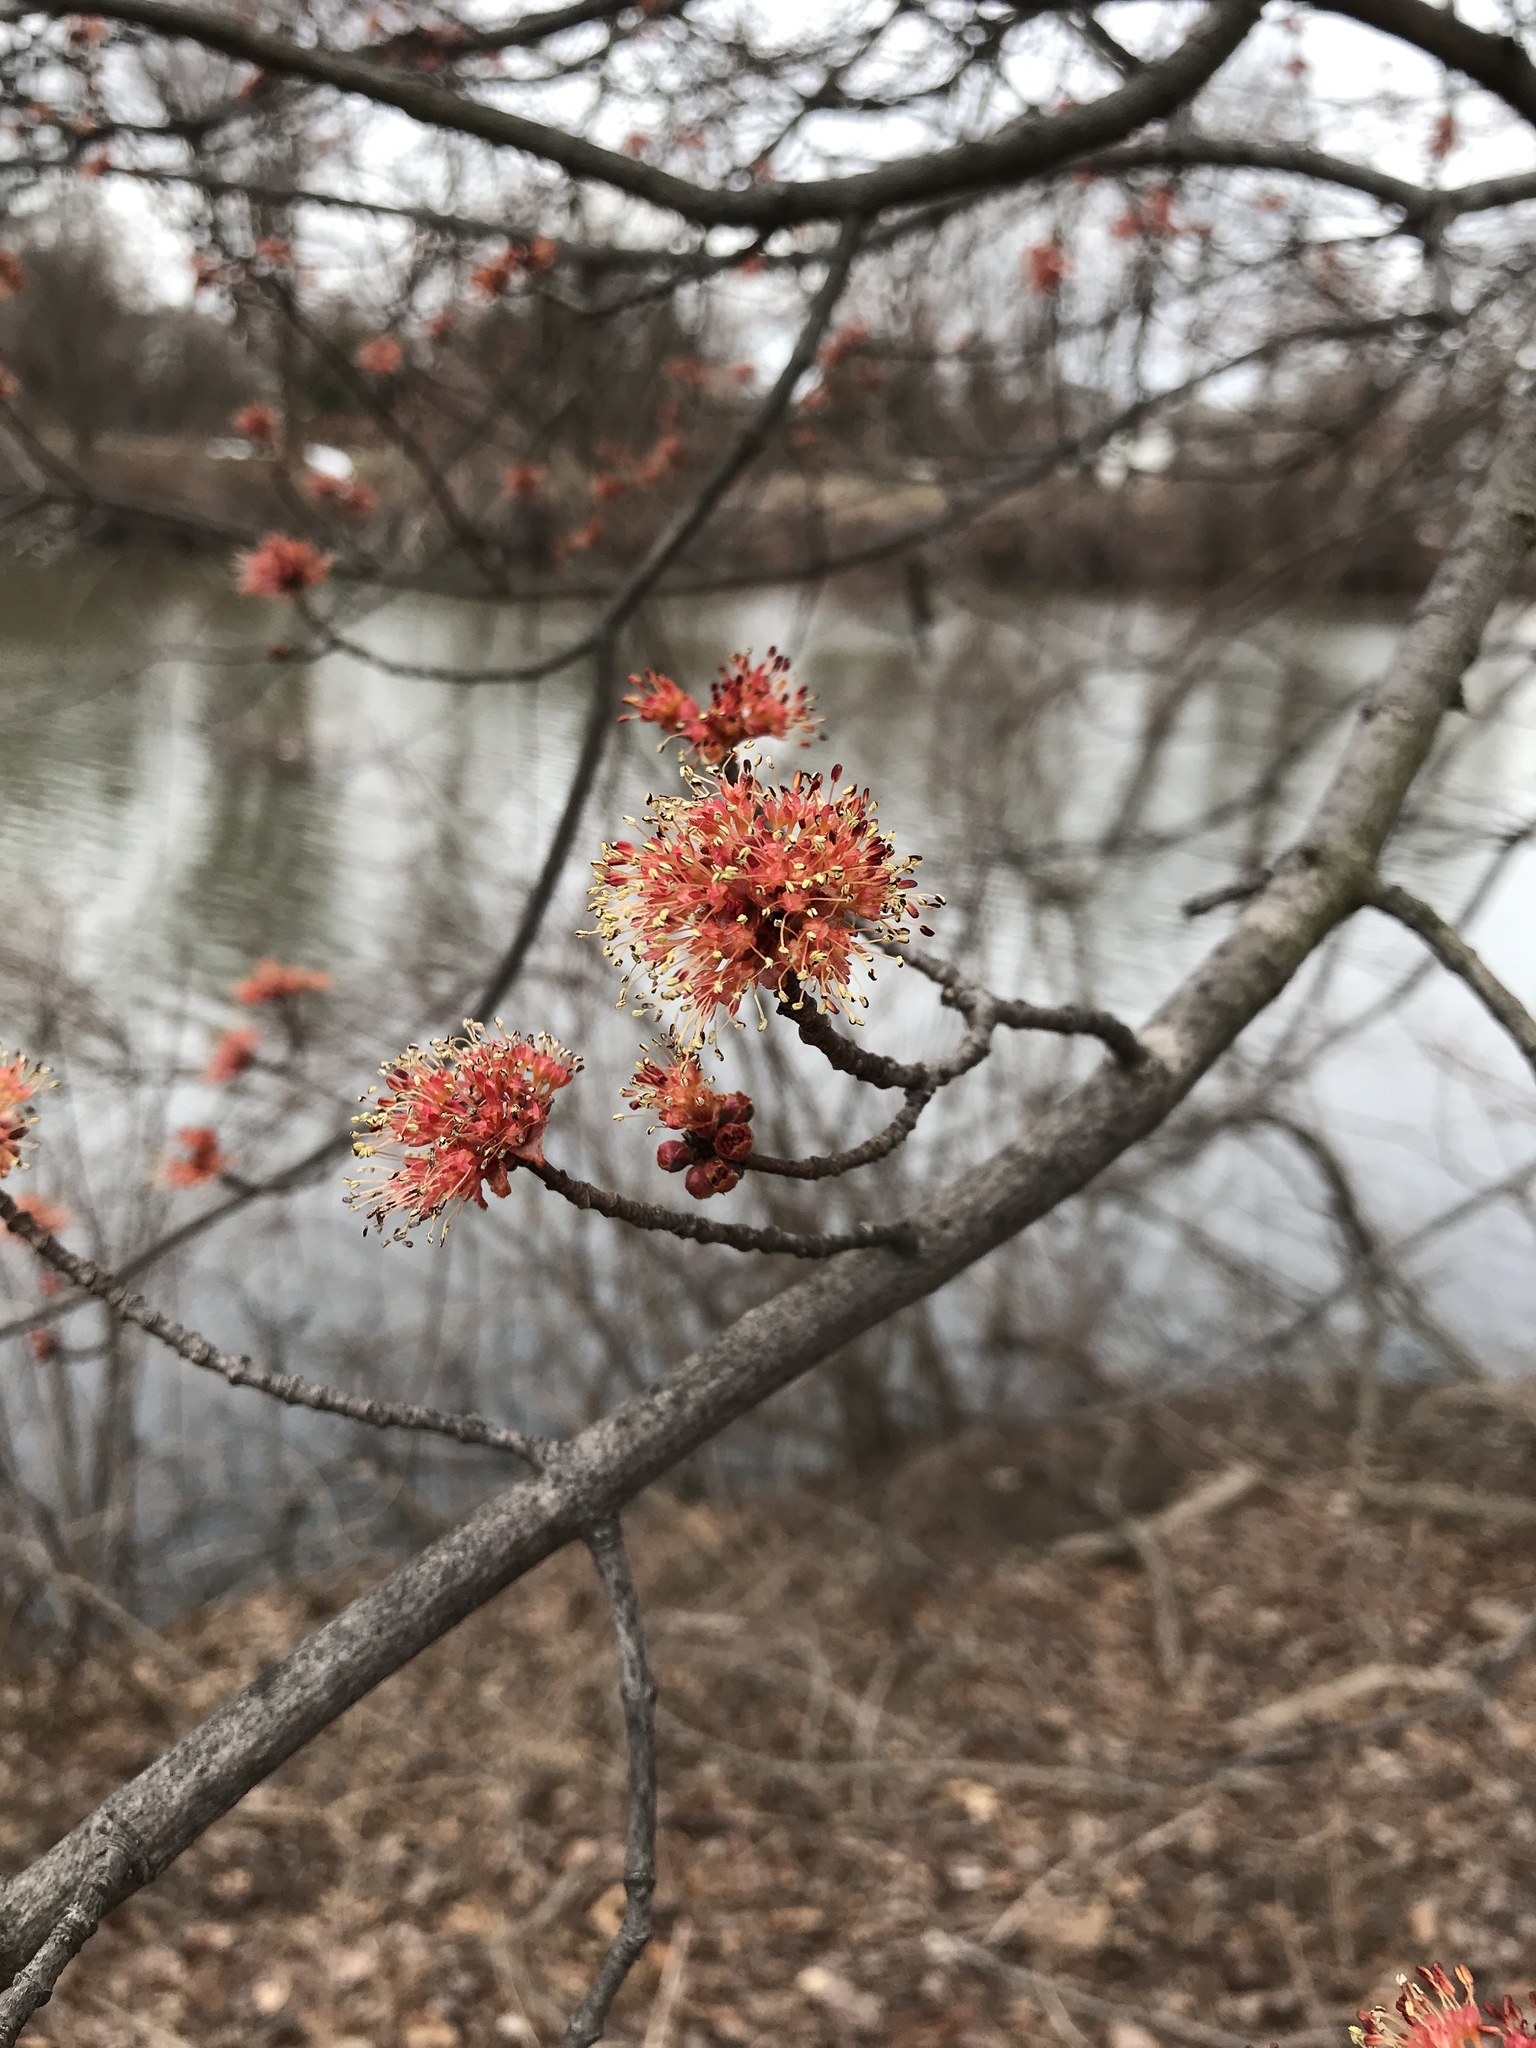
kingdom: Plantae
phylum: Tracheophyta
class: Magnoliopsida
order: Sapindales
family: Sapindaceae
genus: Acer
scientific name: Acer rubrum
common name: Red maple
